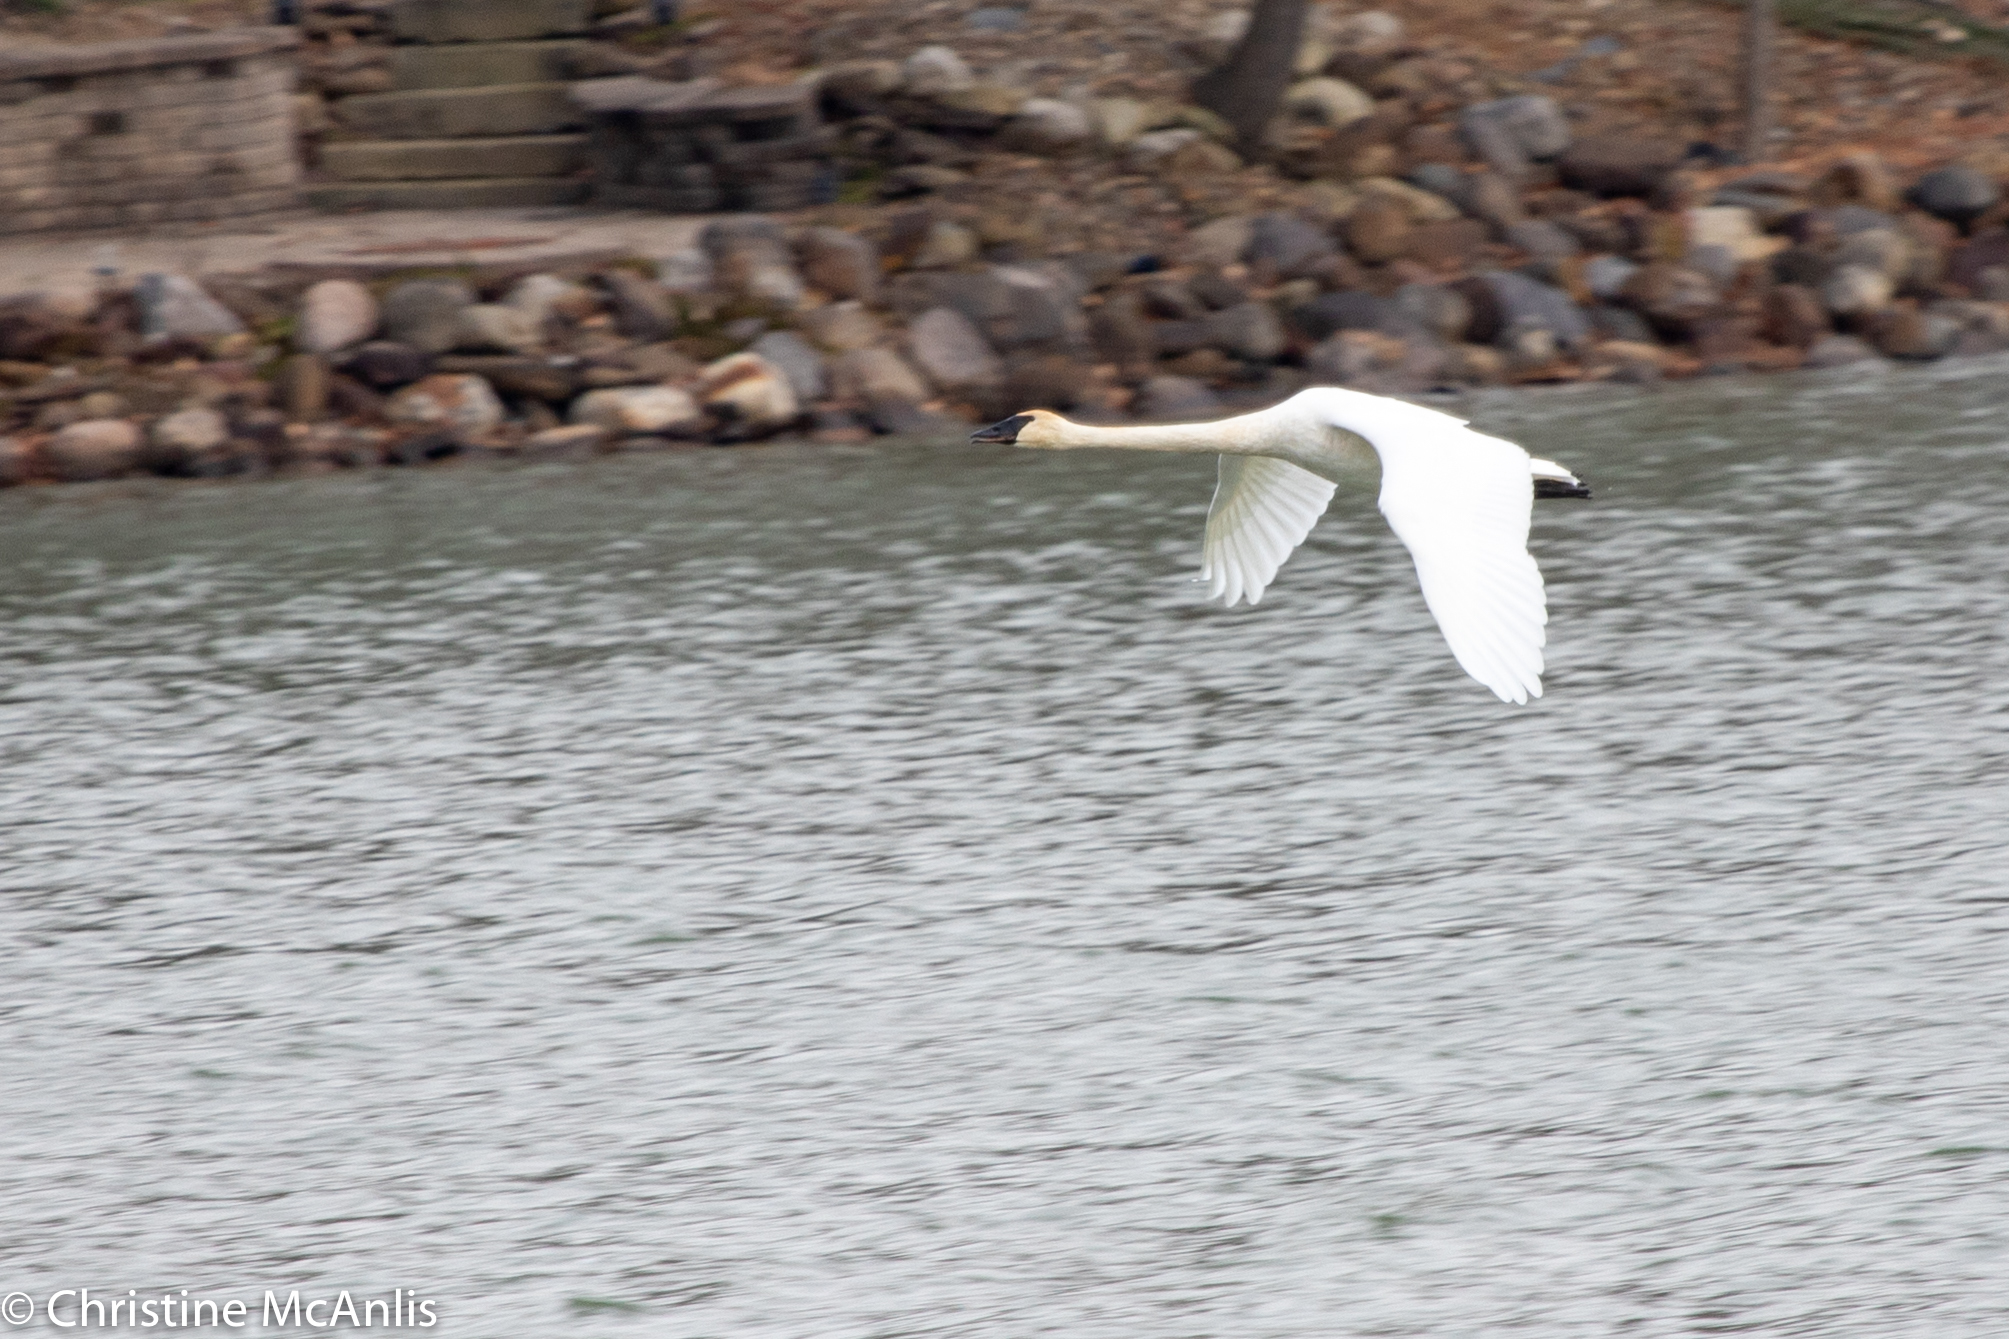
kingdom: Animalia
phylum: Chordata
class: Aves
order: Anseriformes
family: Anatidae
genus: Cygnus
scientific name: Cygnus buccinator
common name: Trumpeter swan
